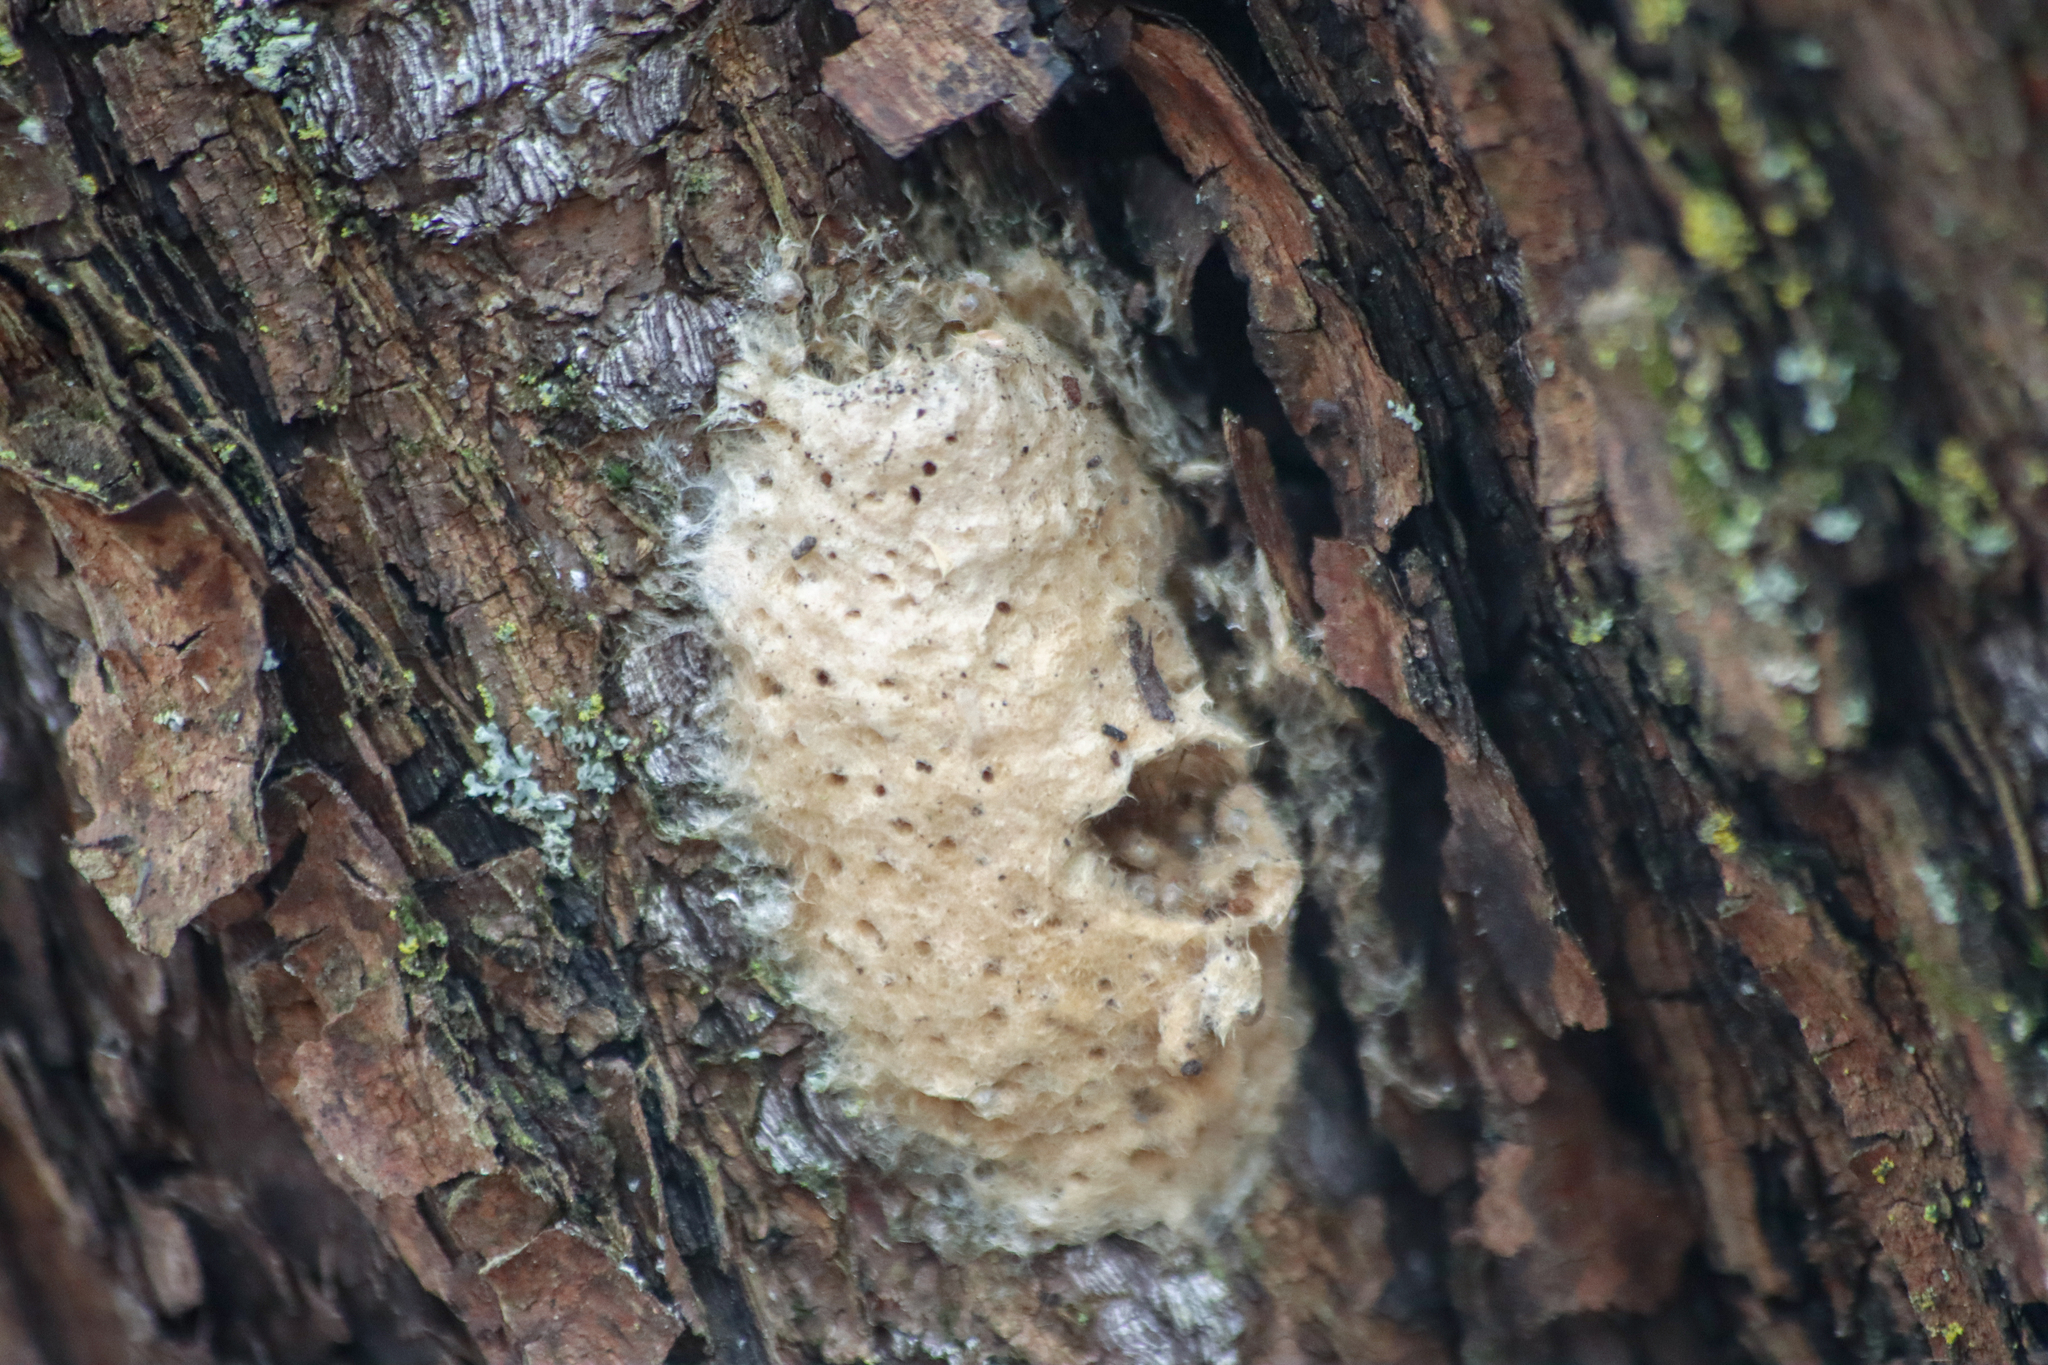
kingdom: Animalia
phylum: Arthropoda
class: Insecta
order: Lepidoptera
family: Erebidae
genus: Lymantria
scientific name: Lymantria dispar
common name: Gypsy moth
